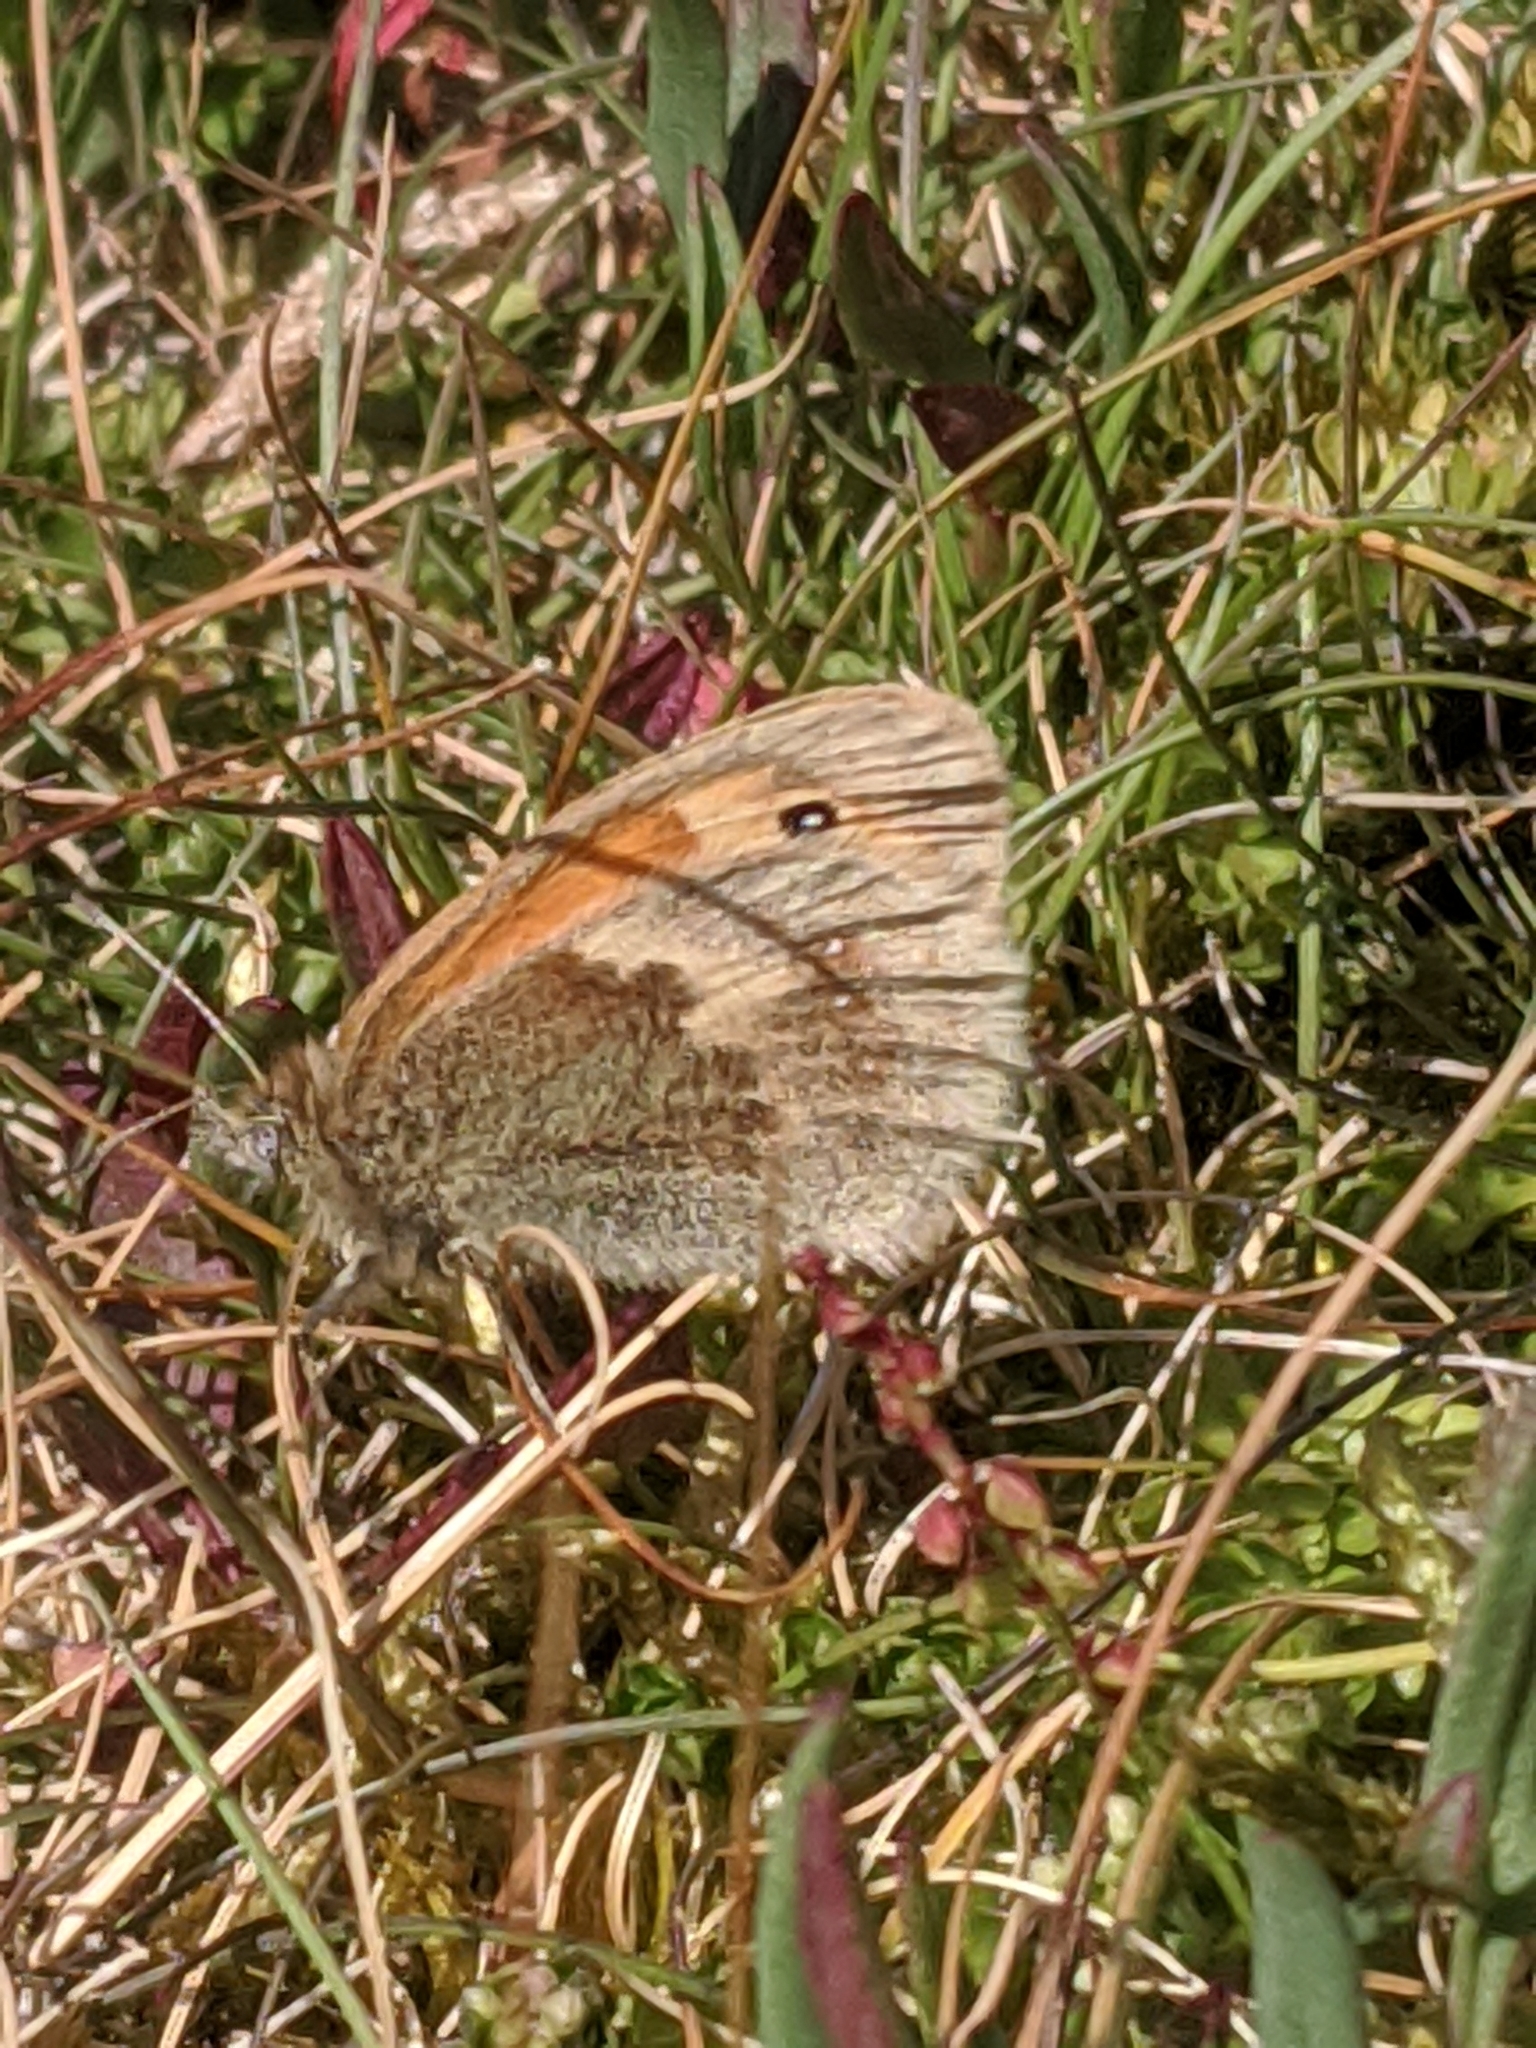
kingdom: Animalia
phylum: Arthropoda
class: Insecta
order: Lepidoptera
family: Nymphalidae
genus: Coenonympha
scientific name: Coenonympha pamphilus
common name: Small heath
